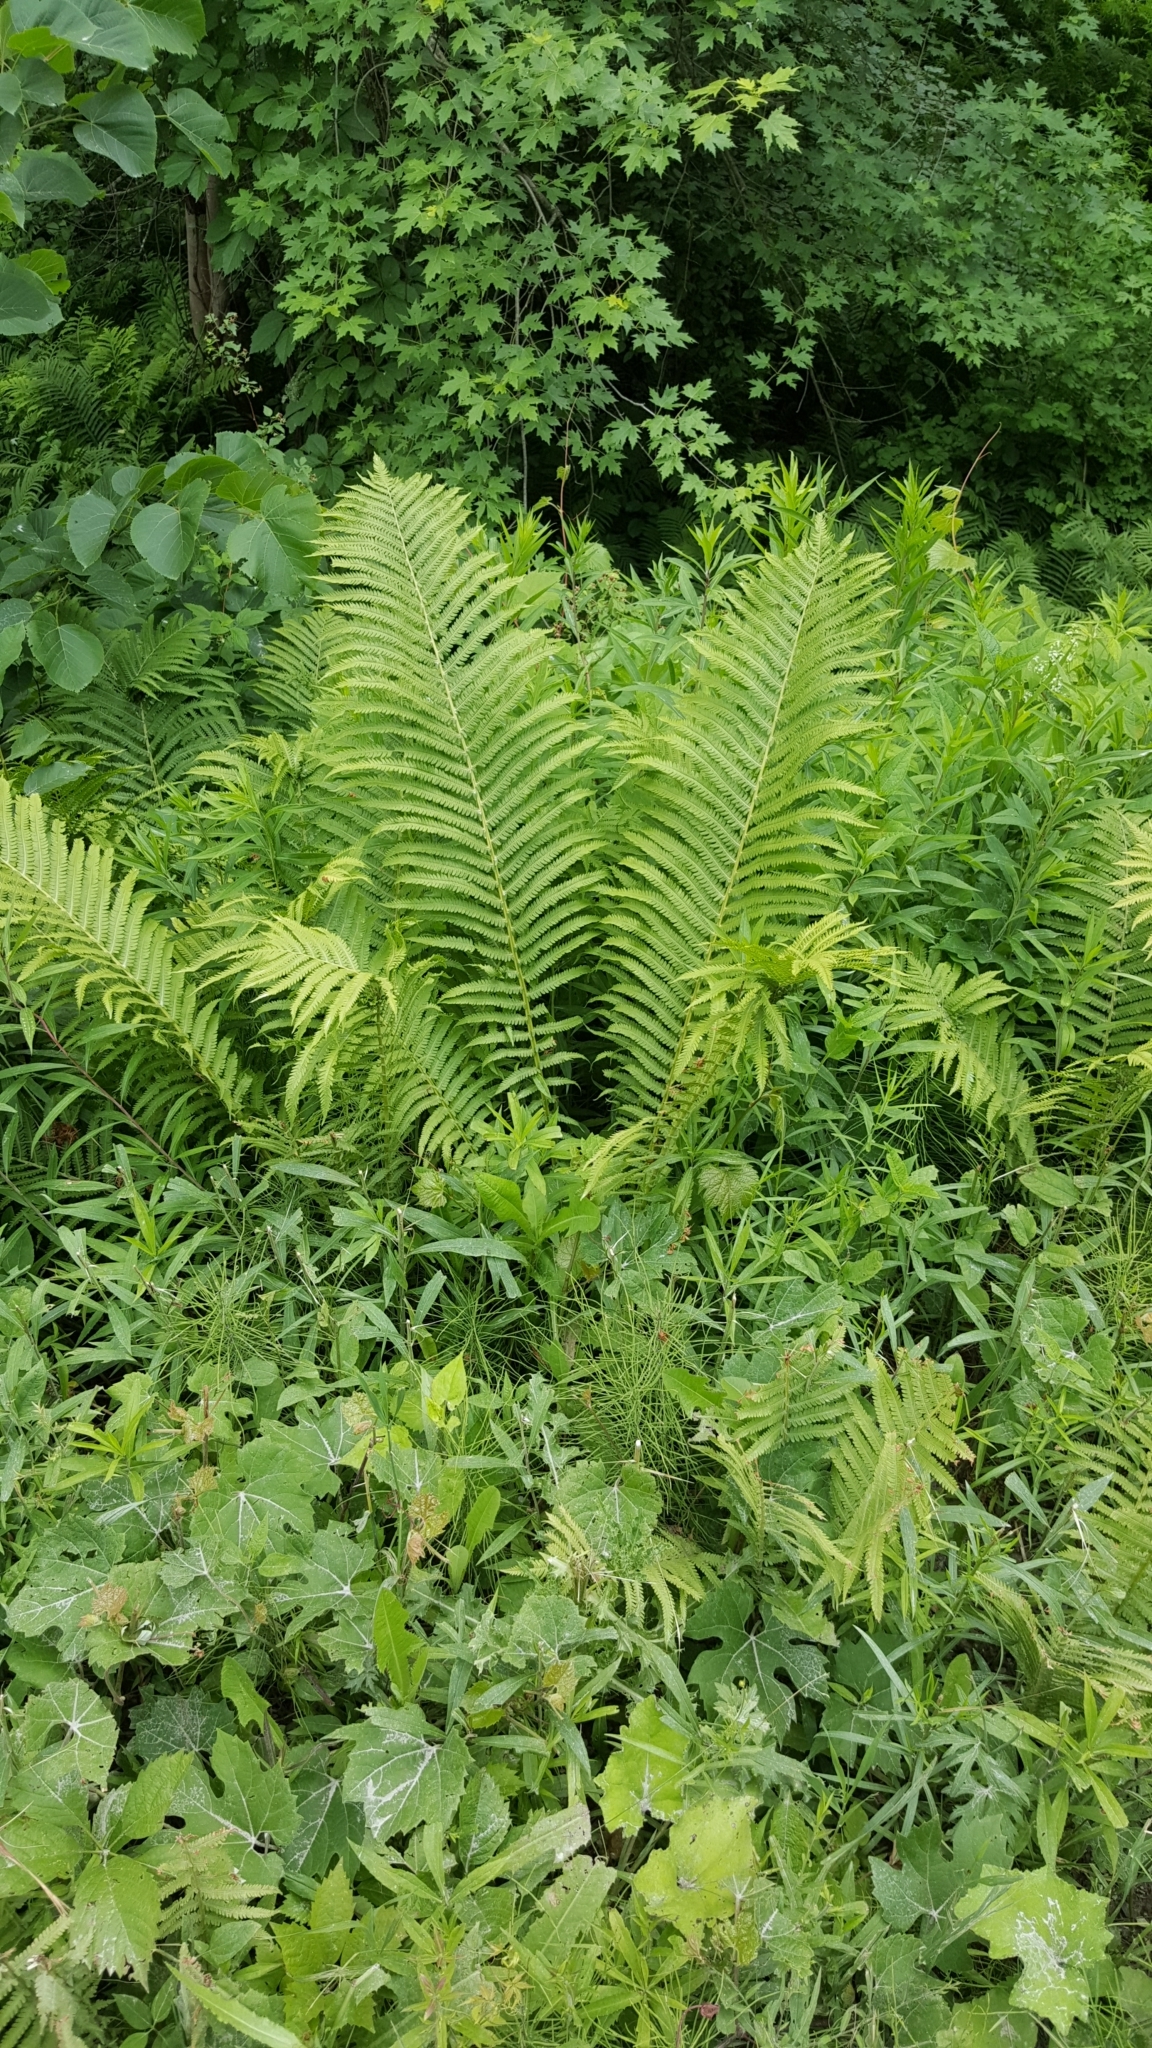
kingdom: Plantae
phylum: Tracheophyta
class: Polypodiopsida
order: Polypodiales
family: Onocleaceae
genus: Matteuccia
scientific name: Matteuccia struthiopteris
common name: Ostrich fern
